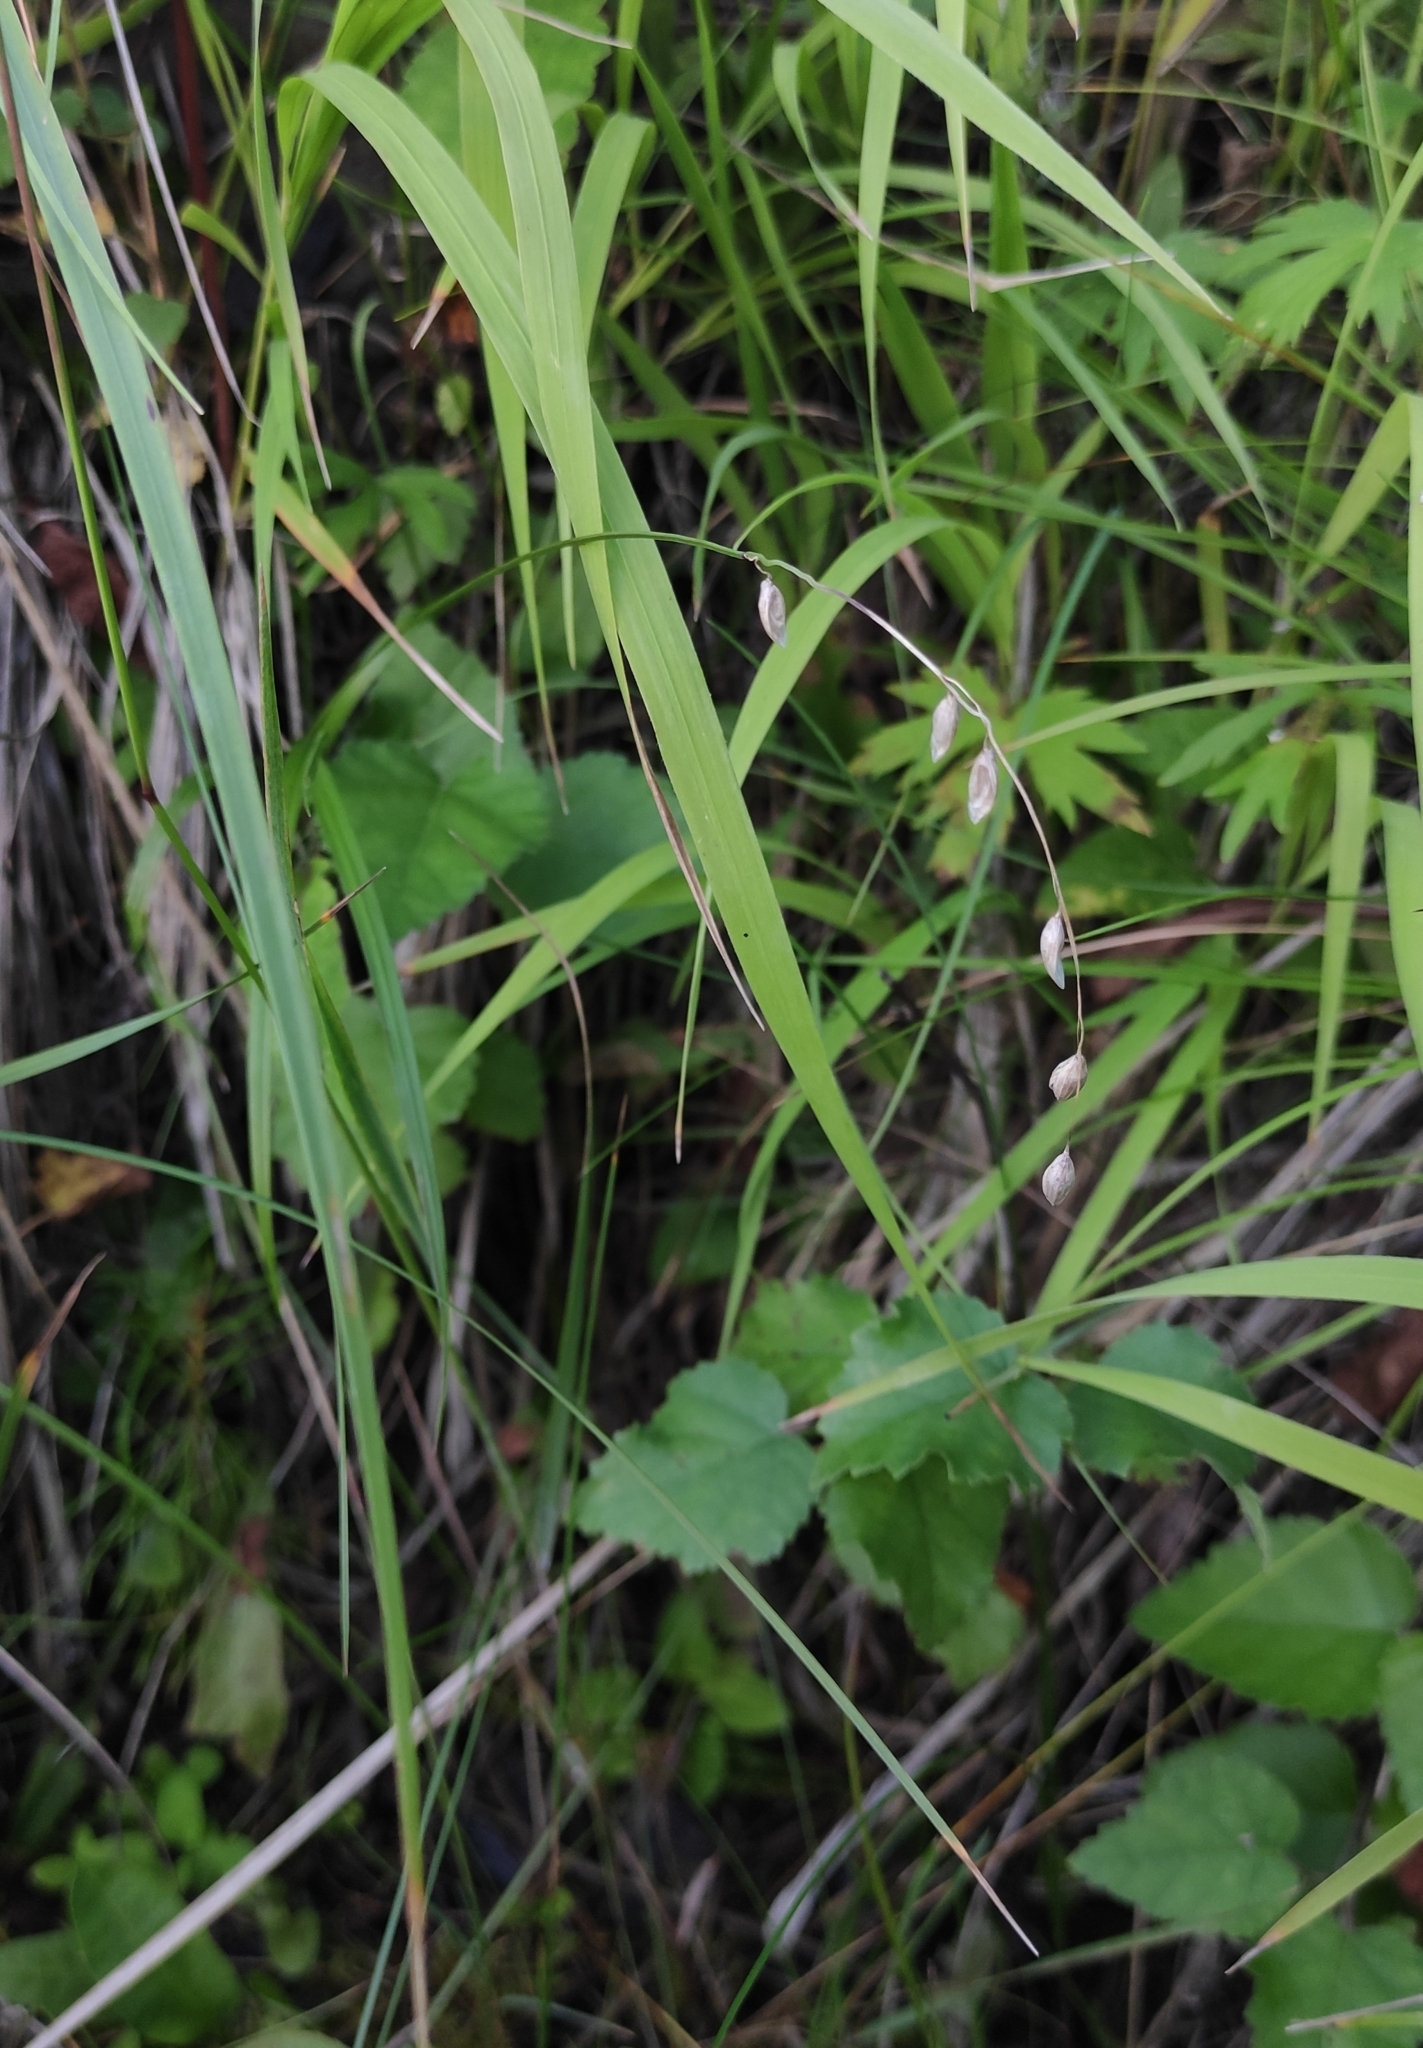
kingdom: Plantae
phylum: Tracheophyta
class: Liliopsida
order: Poales
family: Poaceae
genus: Melica
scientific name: Melica nutans
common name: Mountain melick
